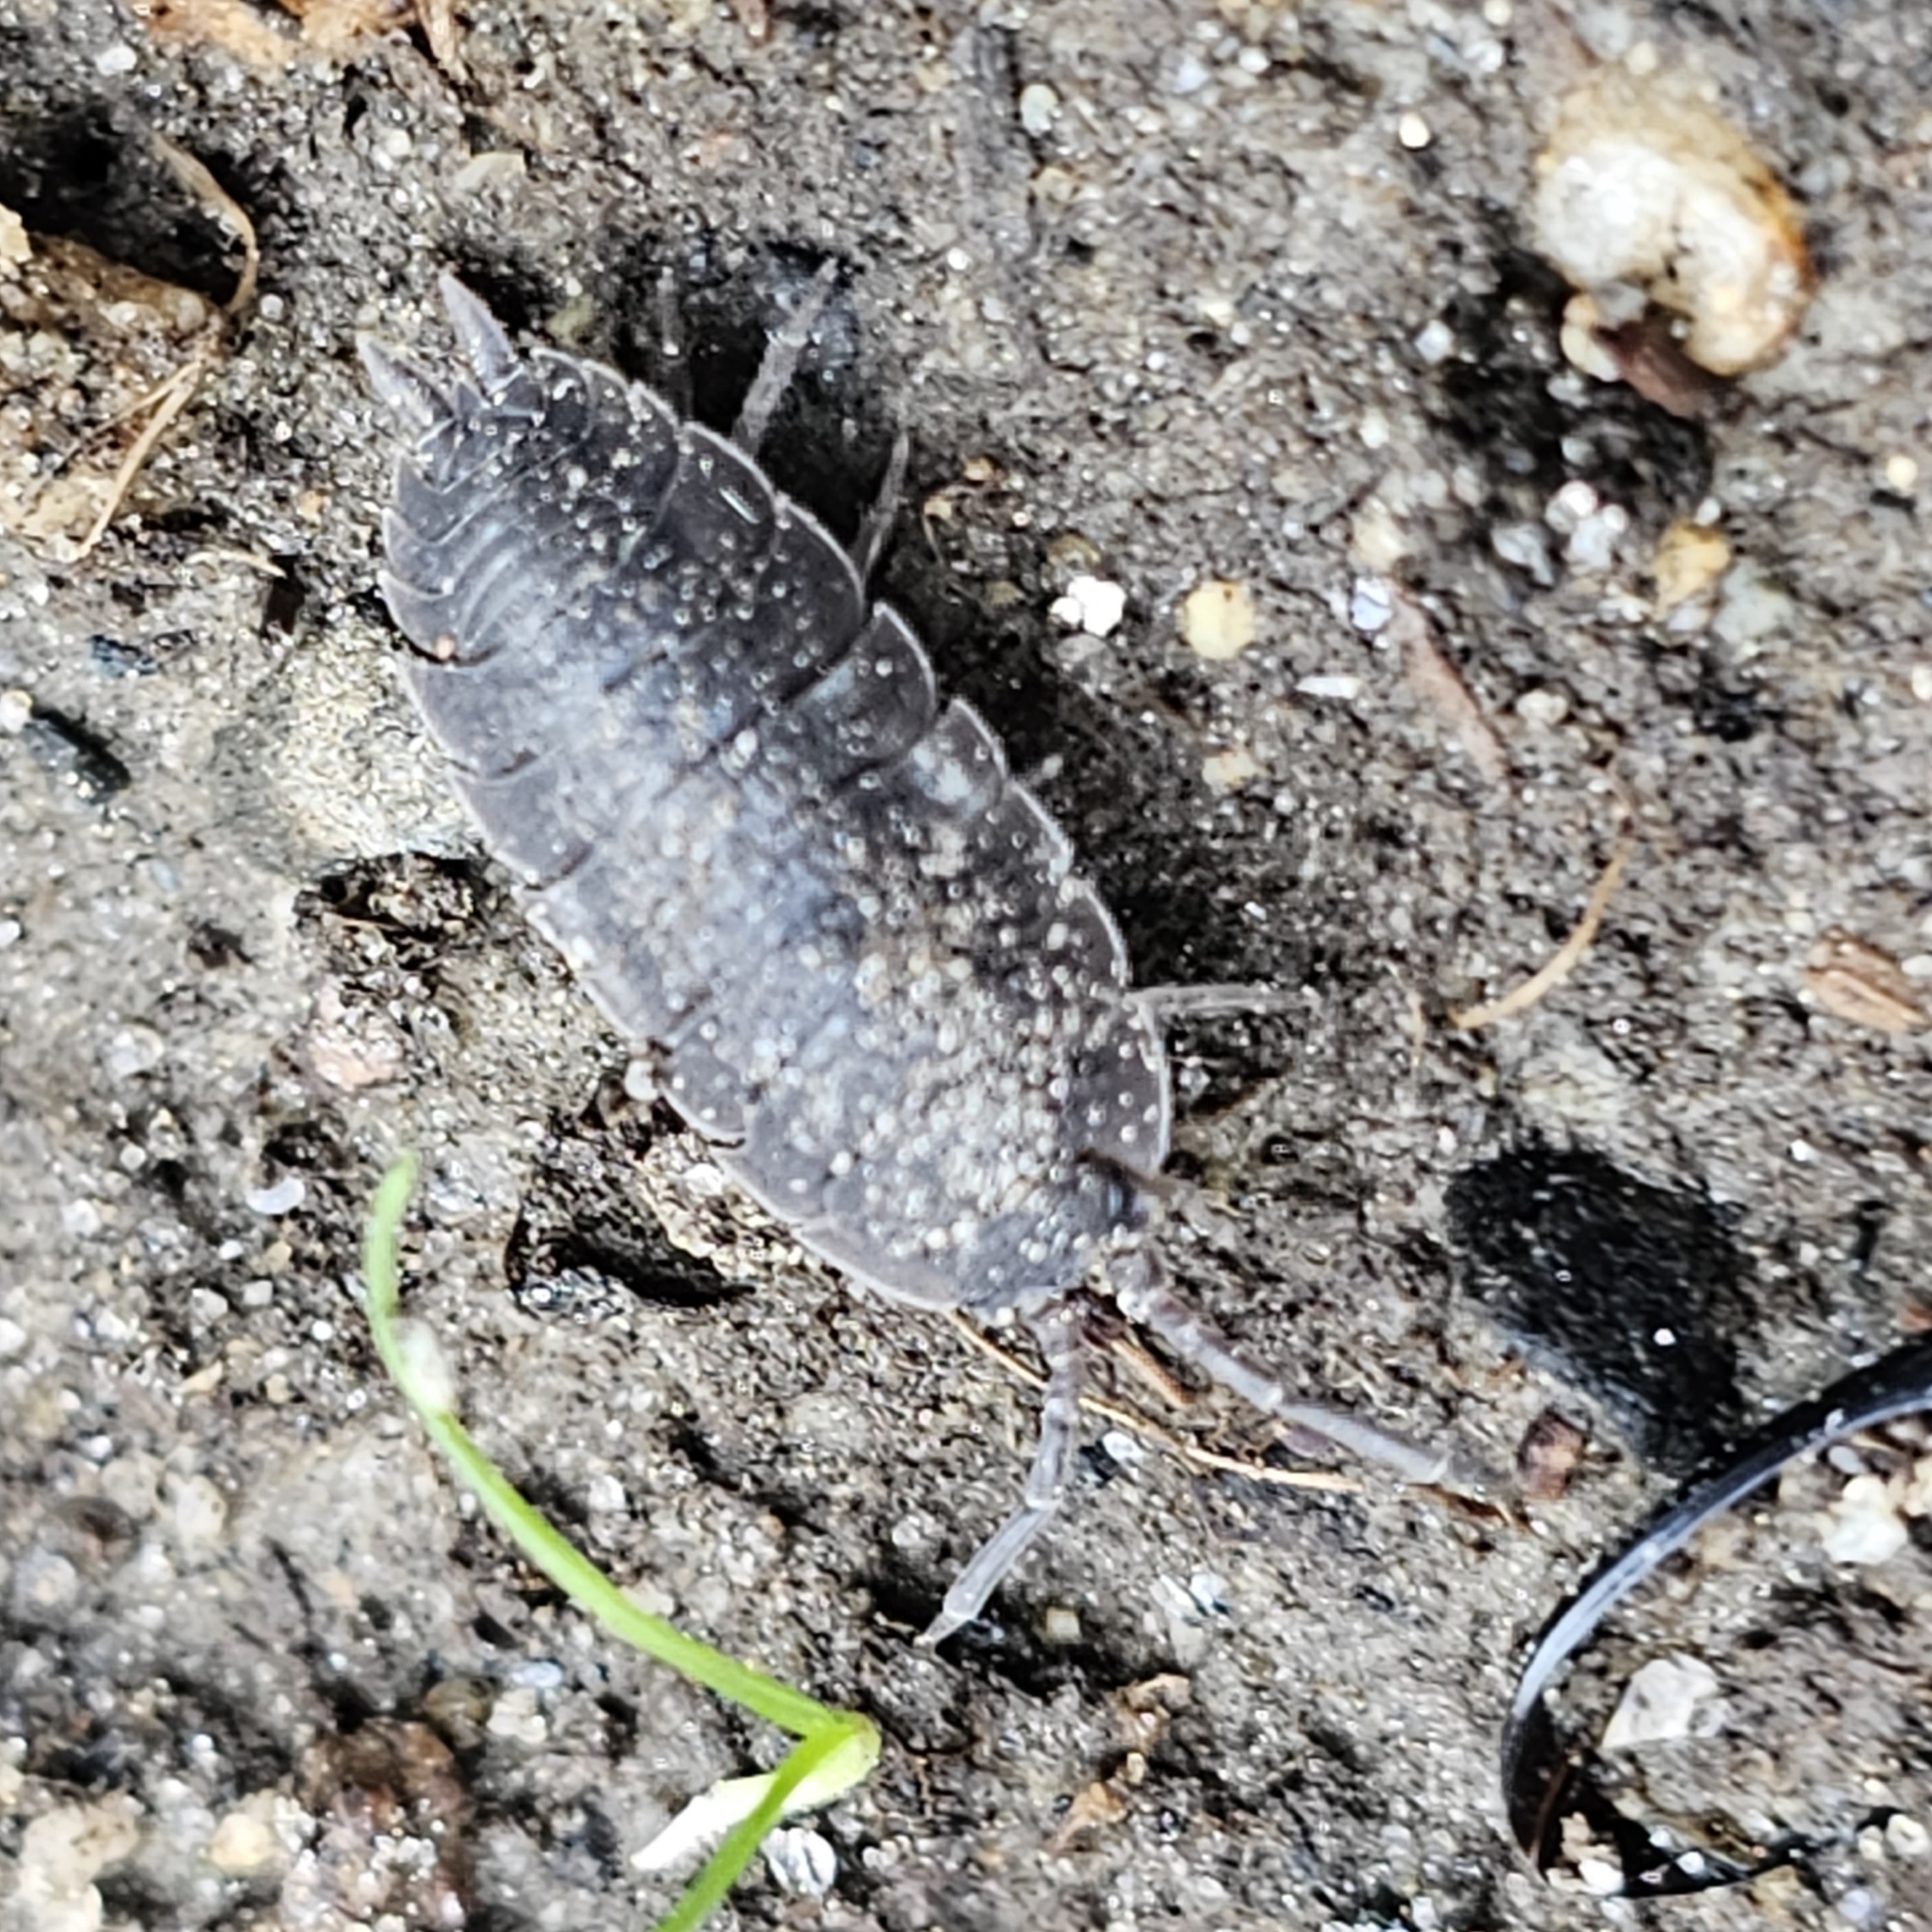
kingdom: Animalia
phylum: Arthropoda
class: Malacostraca
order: Isopoda
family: Porcellionidae
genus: Porcellio
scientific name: Porcellio scaber
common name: Common rough woodlouse
